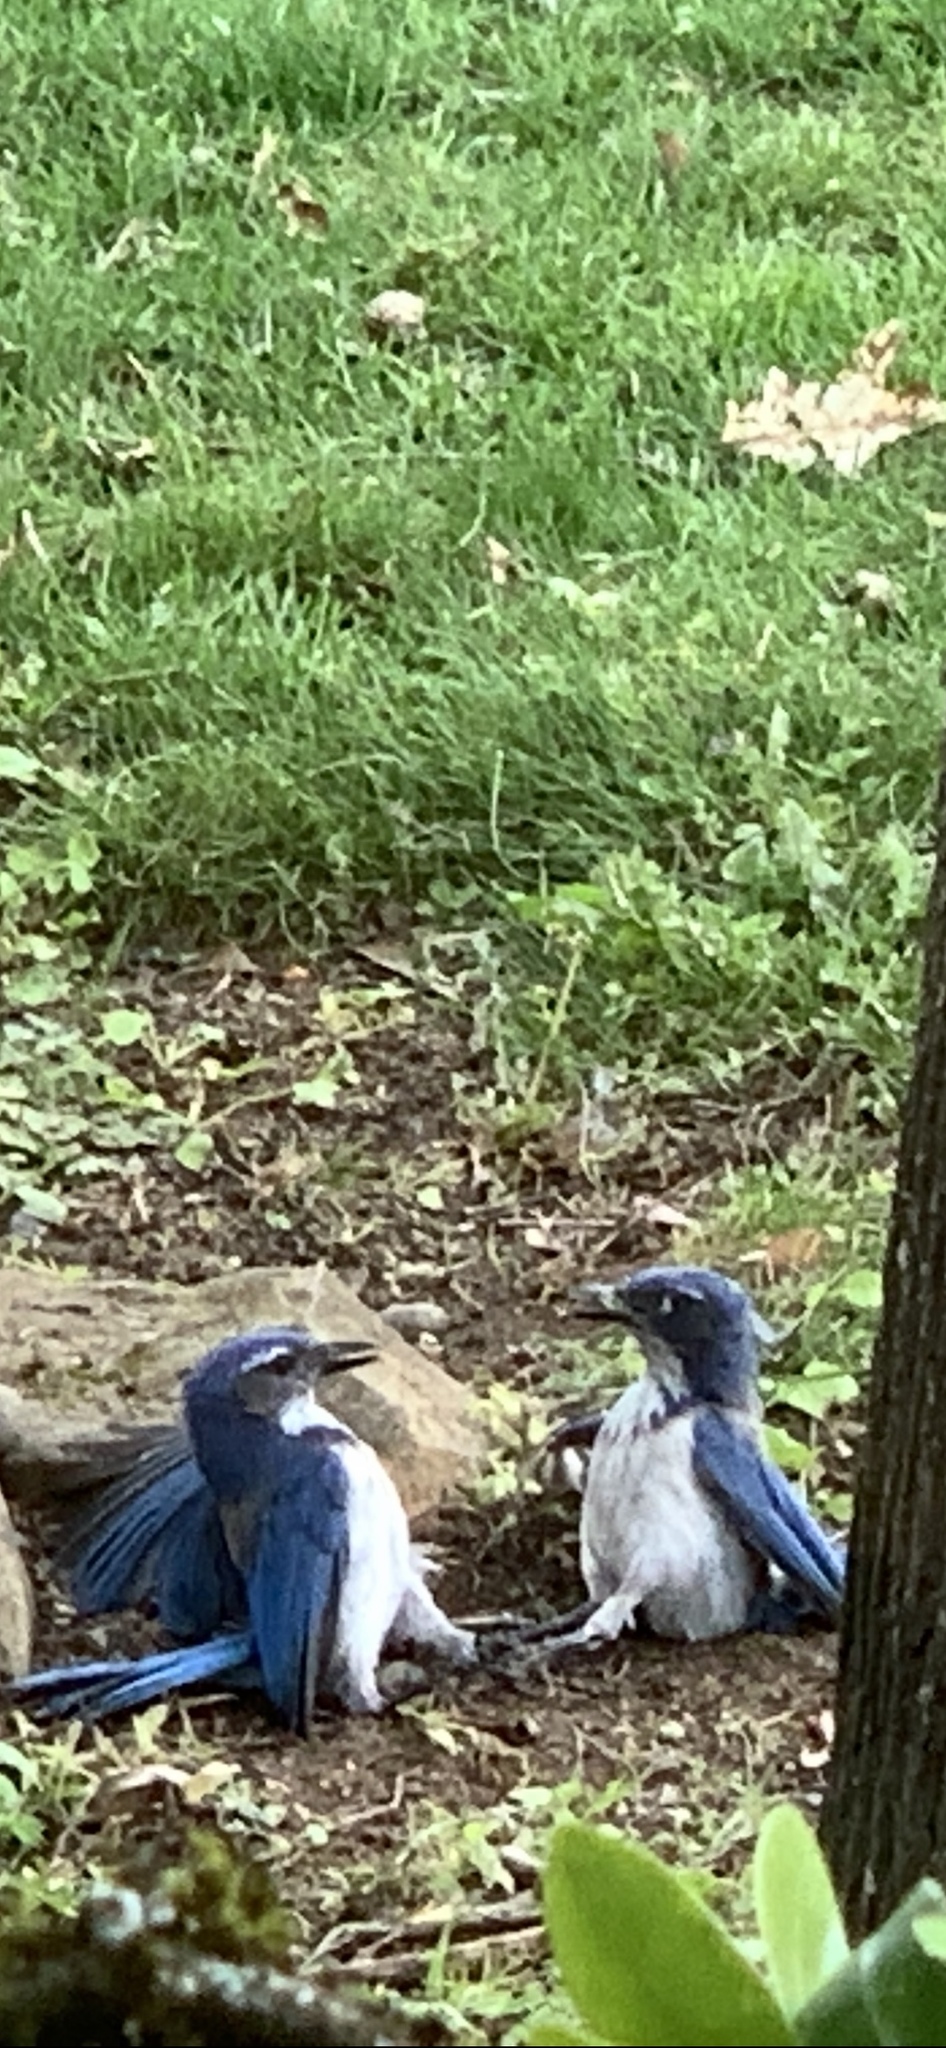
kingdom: Animalia
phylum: Chordata
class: Aves
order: Passeriformes
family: Corvidae
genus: Aphelocoma
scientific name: Aphelocoma californica
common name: California scrub-jay
